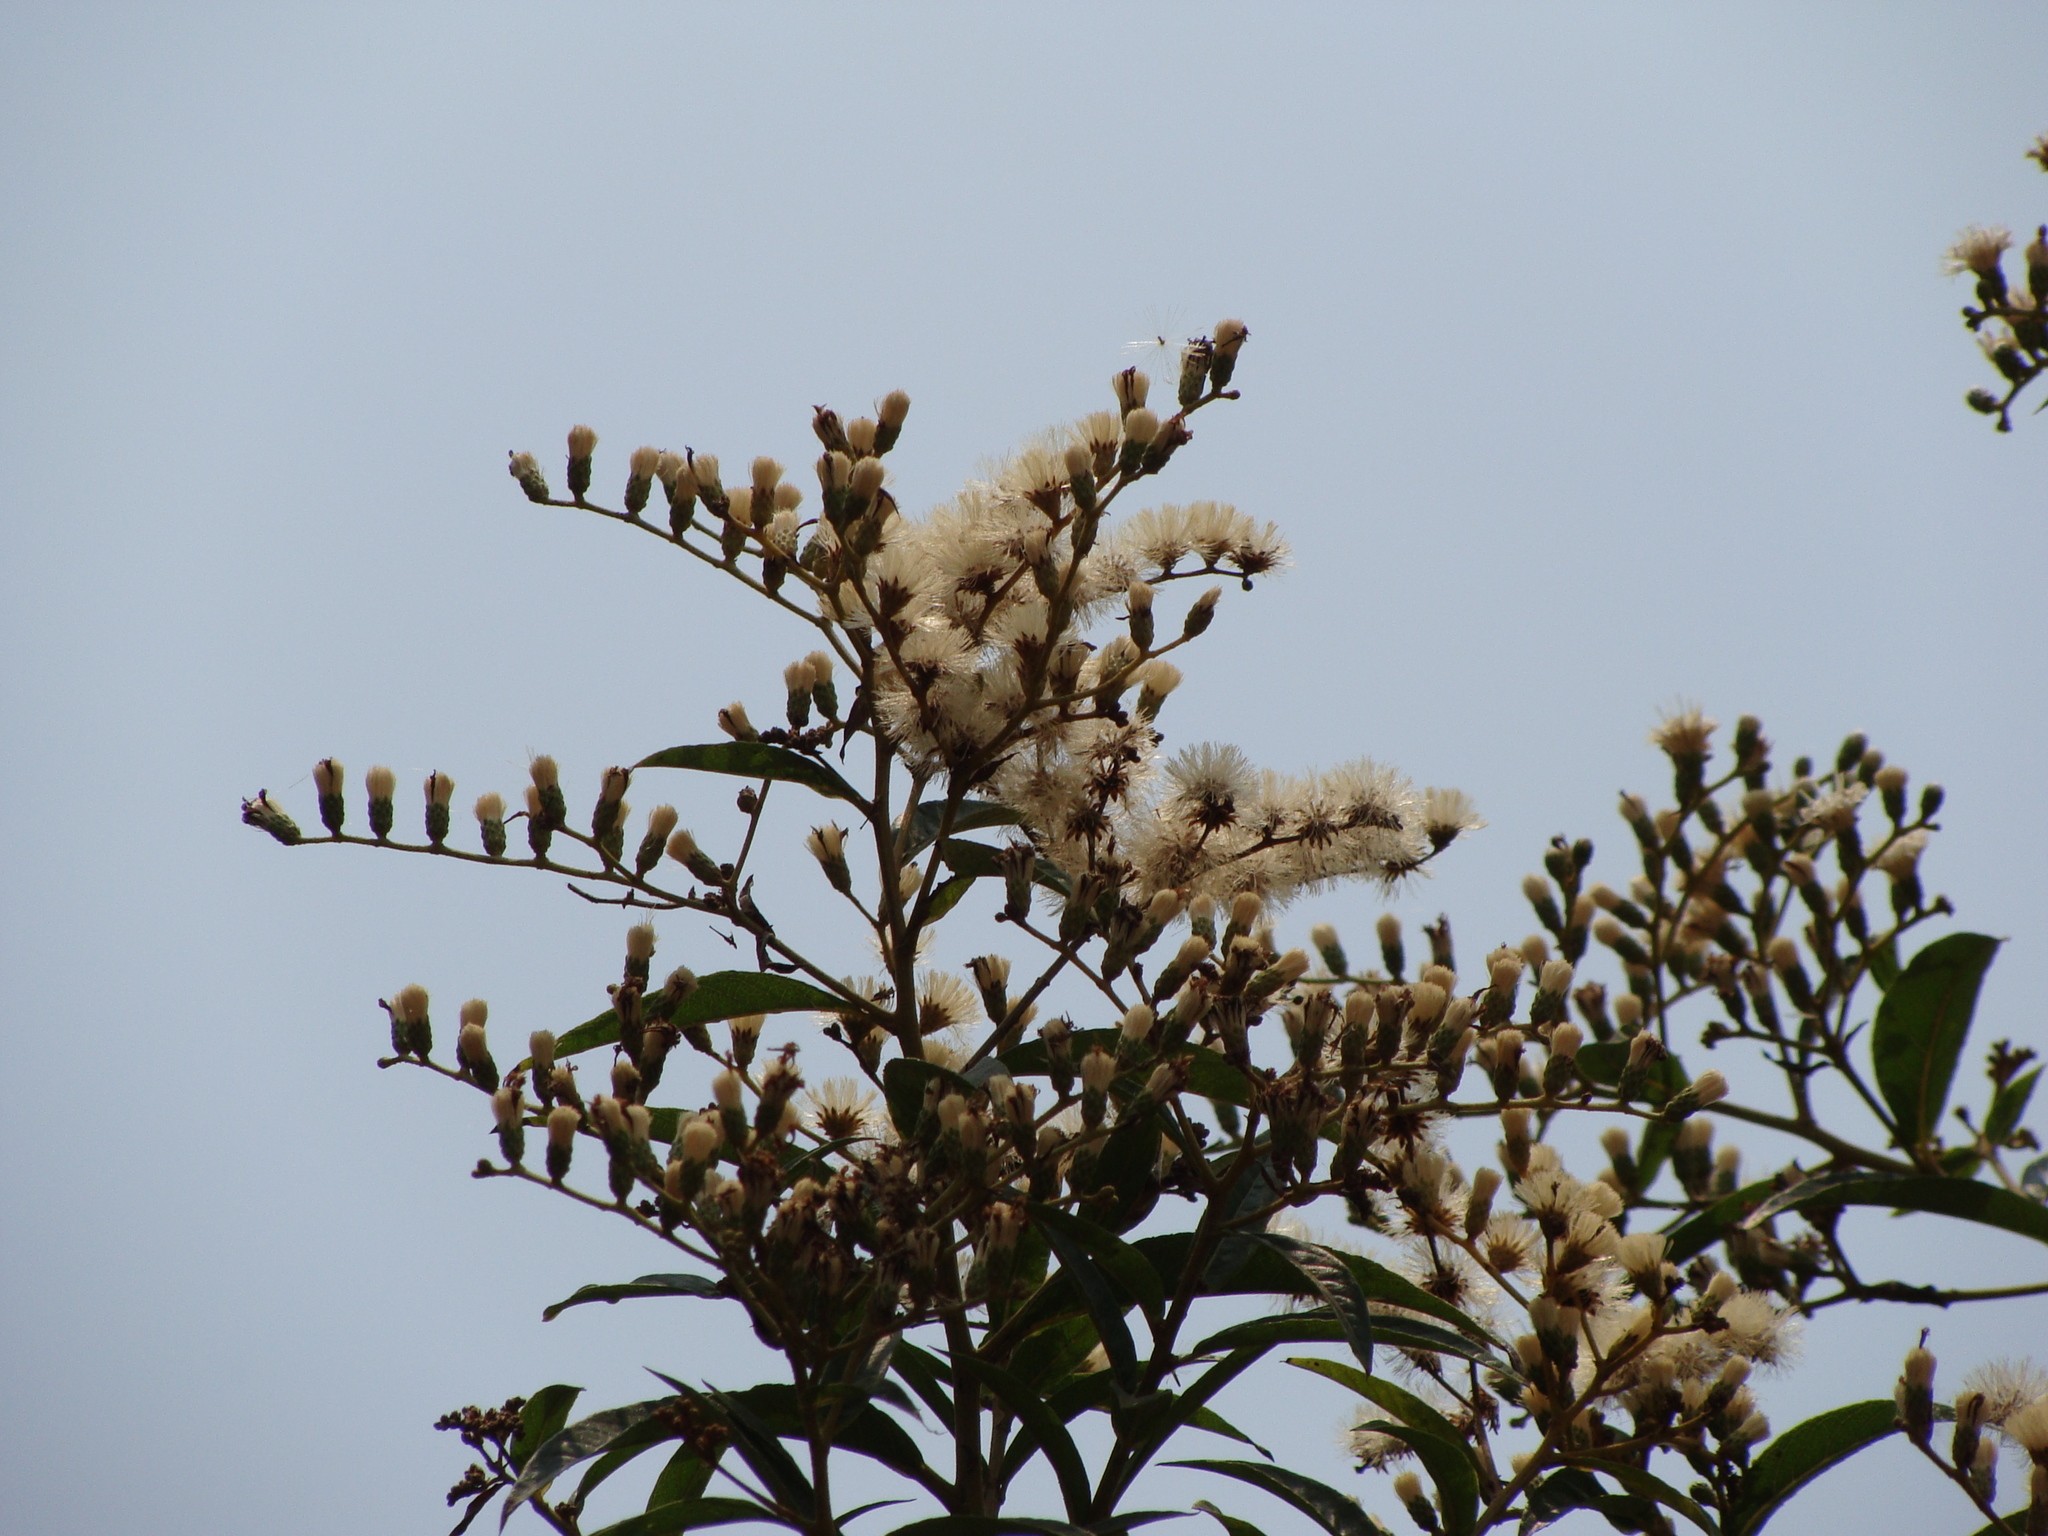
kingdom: Plantae
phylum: Tracheophyta
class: Magnoliopsida
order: Asterales
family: Asteraceae
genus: Lepidaploa
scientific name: Lepidaploa polypleura
